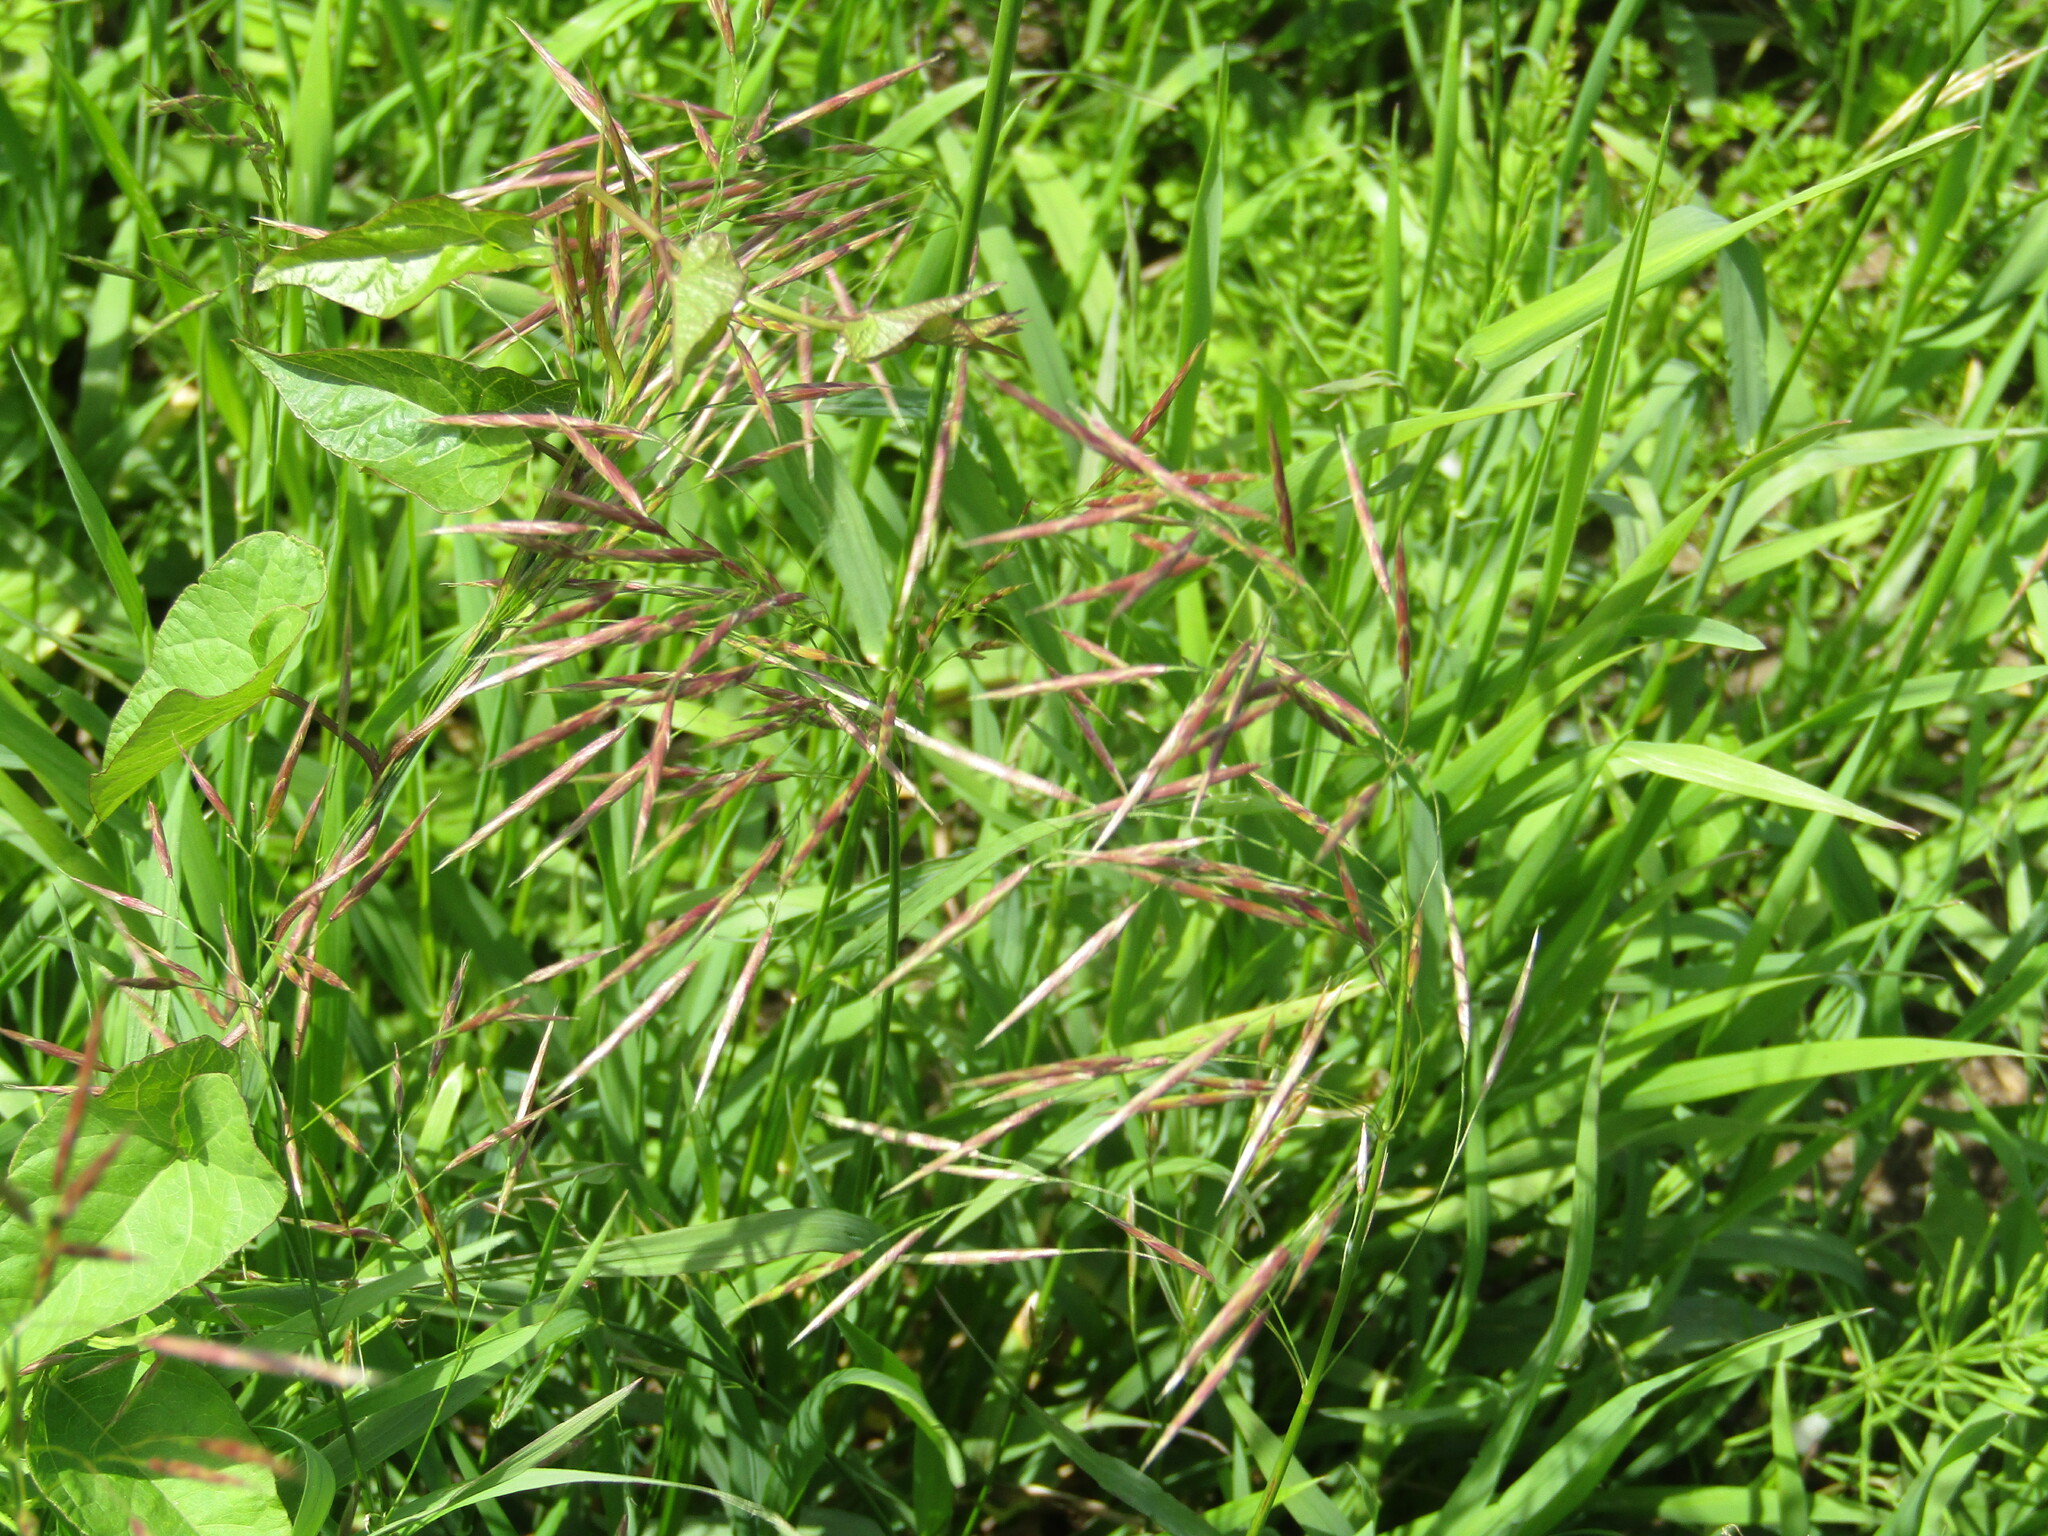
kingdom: Plantae
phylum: Tracheophyta
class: Liliopsida
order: Poales
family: Poaceae
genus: Bromus
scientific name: Bromus inermis
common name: Smooth brome
